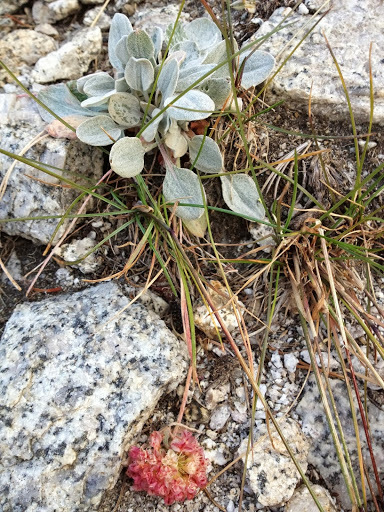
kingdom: Plantae
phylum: Tracheophyta
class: Magnoliopsida
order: Caryophyllales
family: Polygonaceae
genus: Eriogonum
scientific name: Eriogonum lobbii
